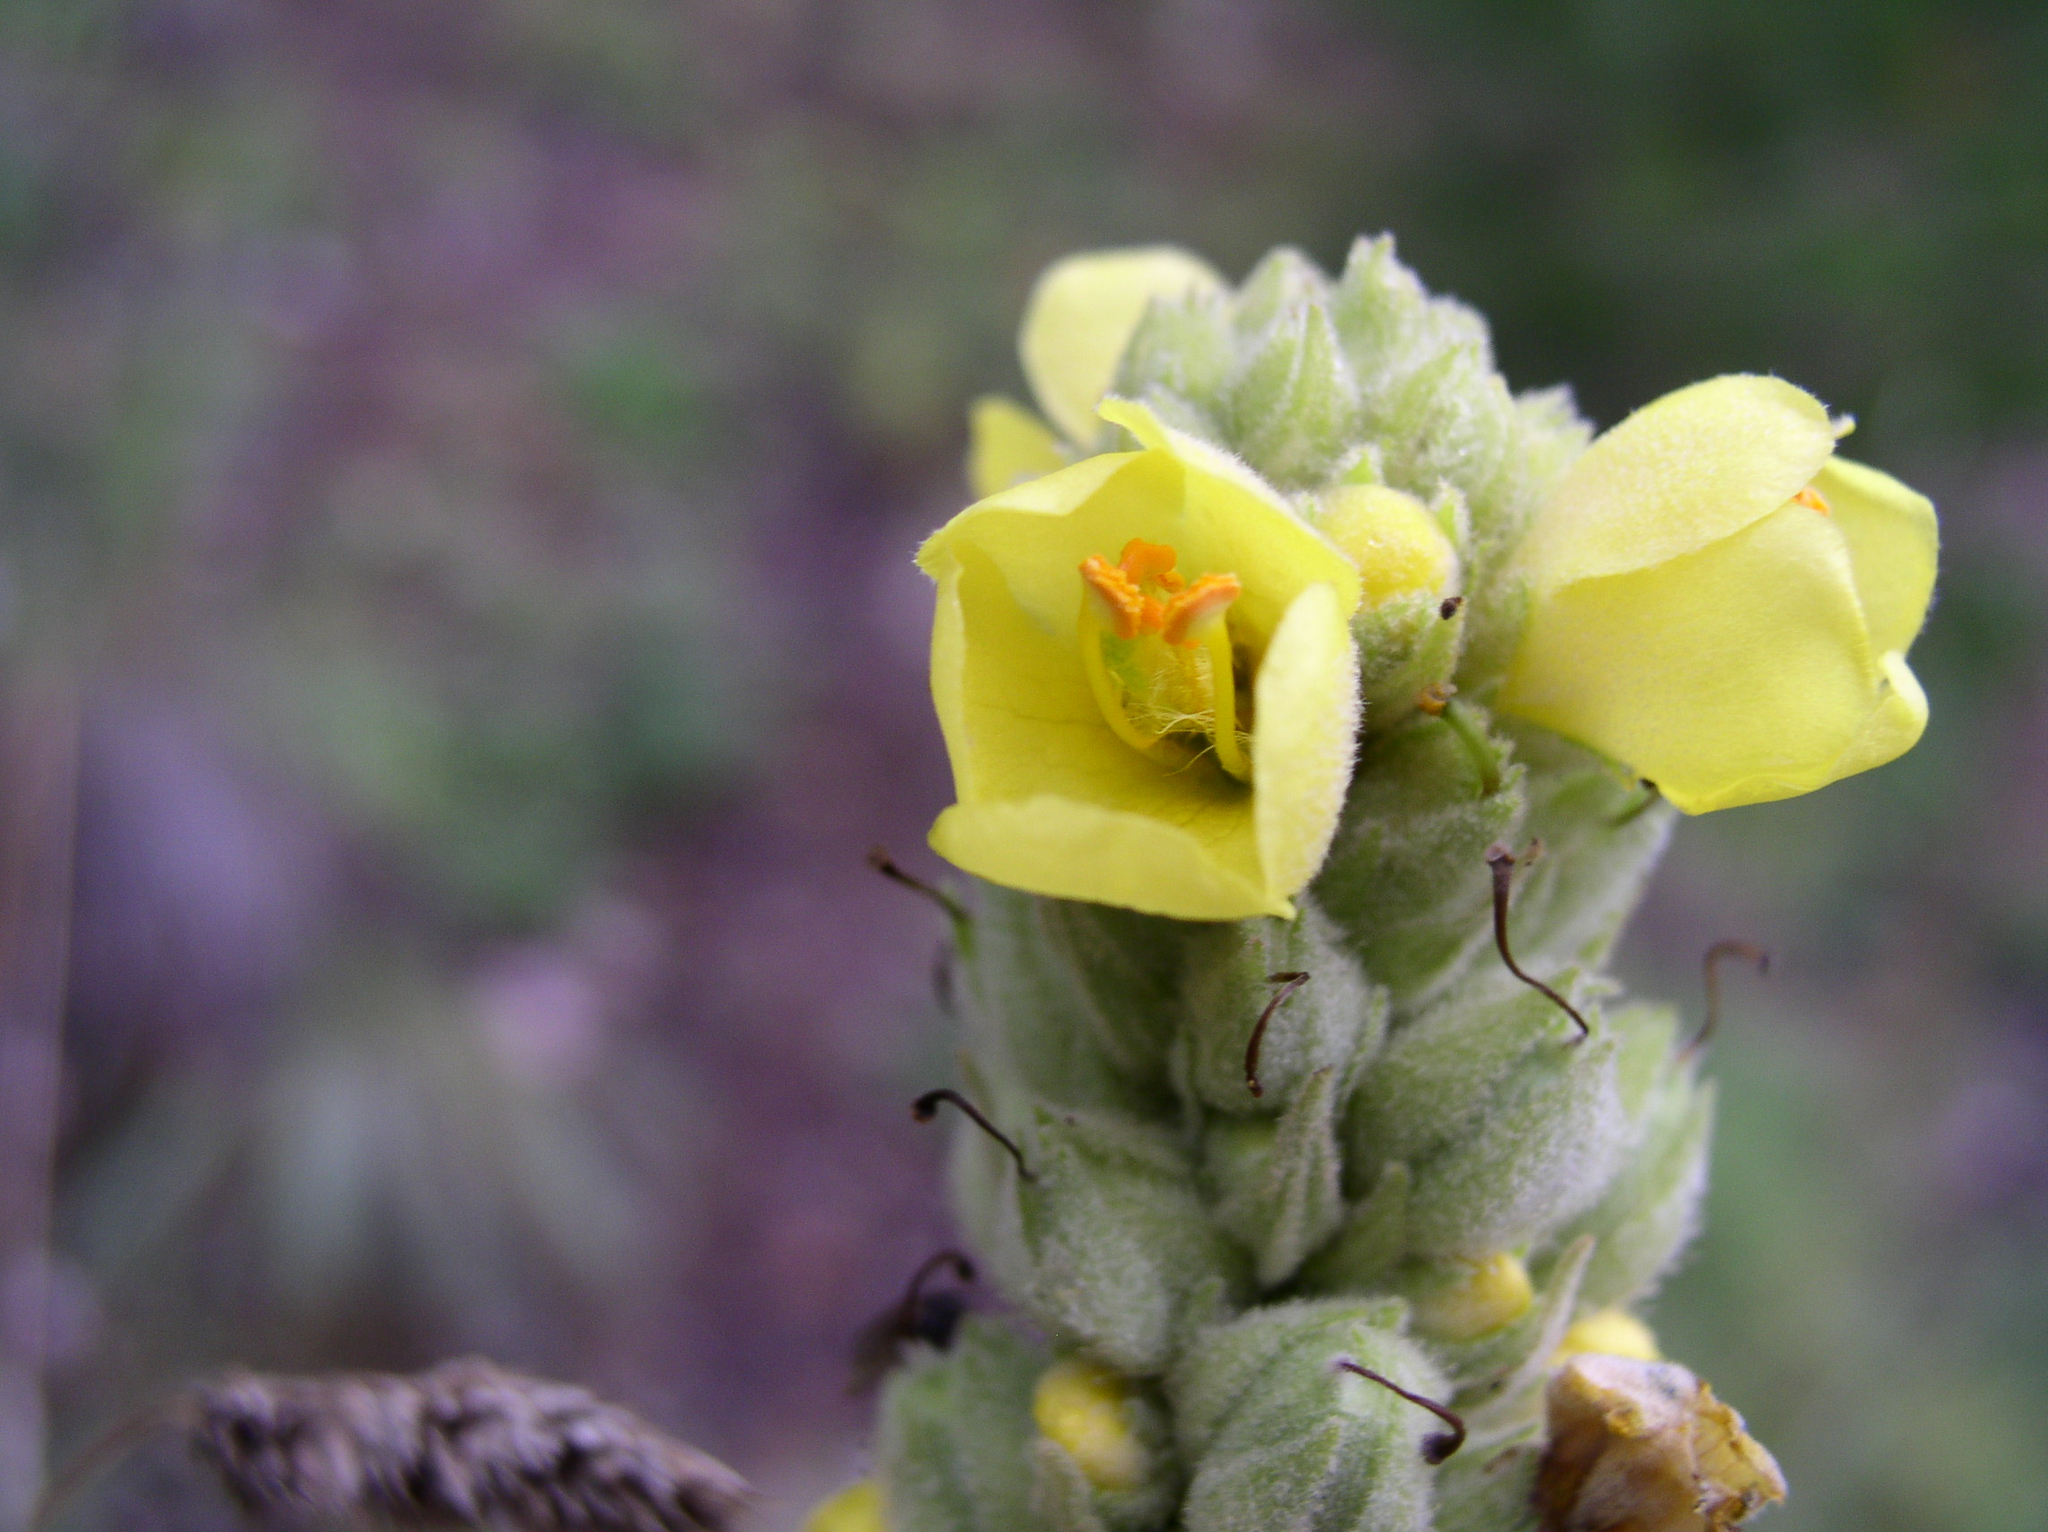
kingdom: Plantae
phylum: Tracheophyta
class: Magnoliopsida
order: Lamiales
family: Scrophulariaceae
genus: Verbascum
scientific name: Verbascum thapsus
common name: Common mullein
